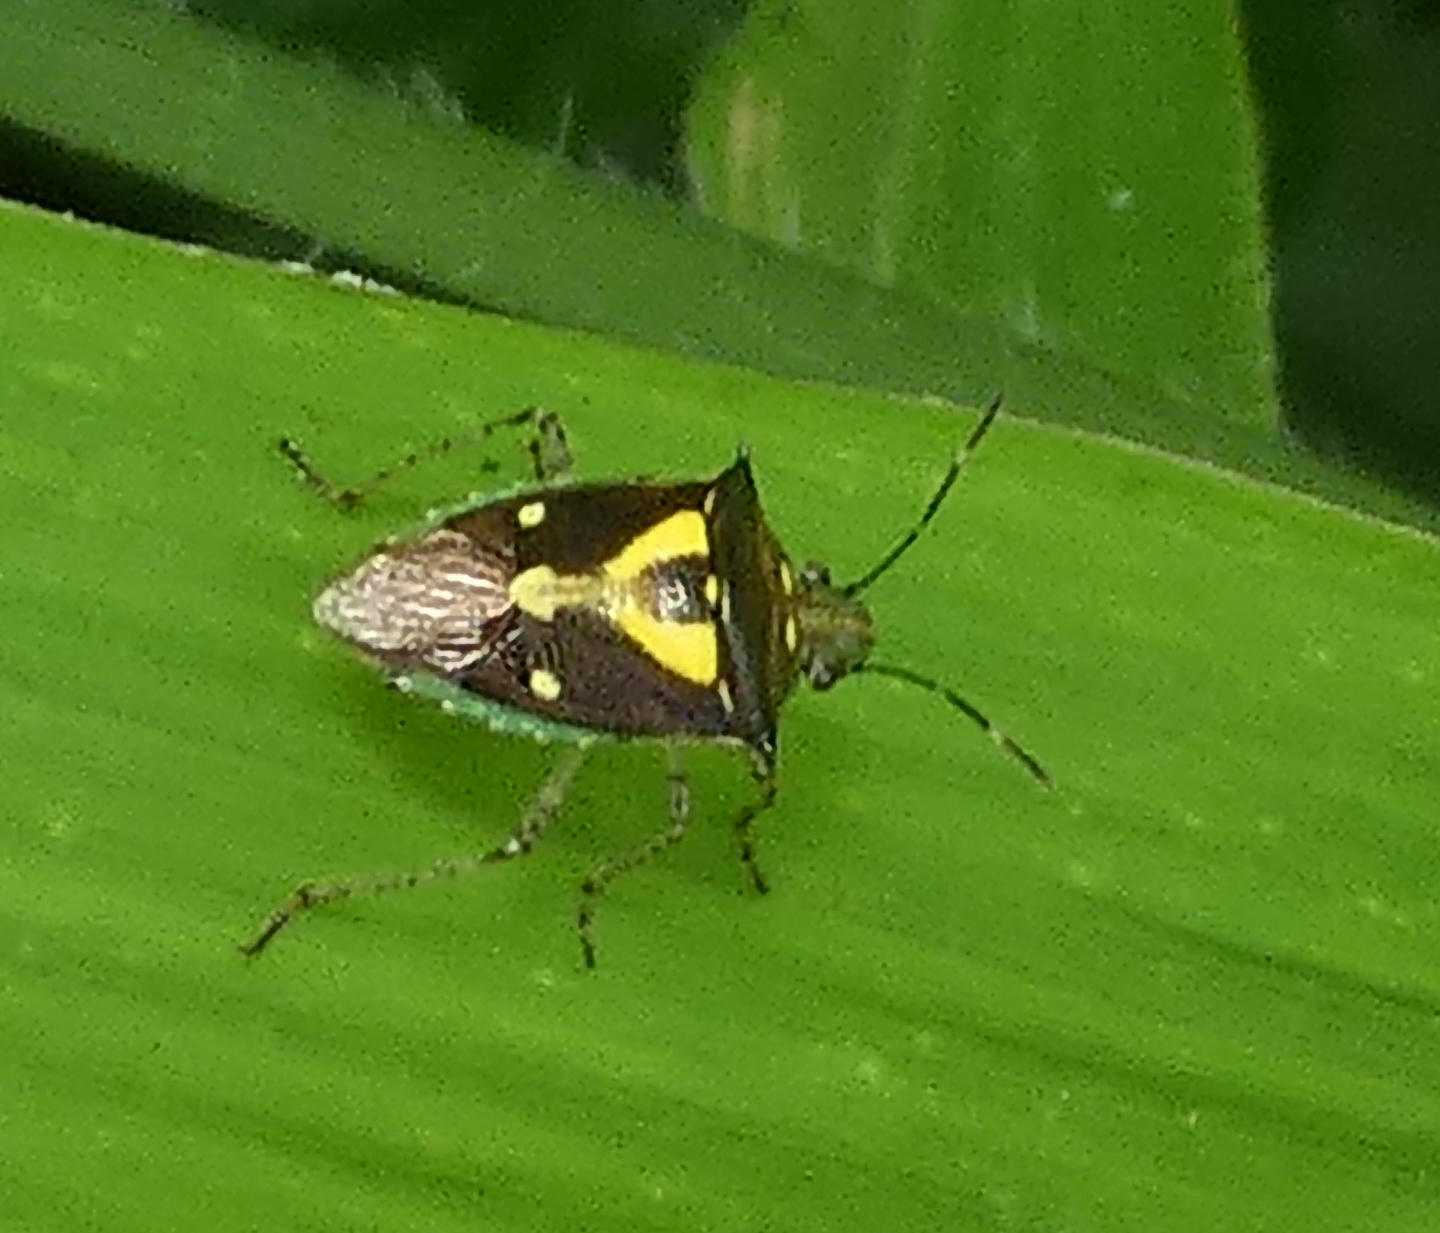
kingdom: Animalia
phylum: Arthropoda
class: Insecta
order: Hemiptera
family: Pentatomidae
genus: Mormidea
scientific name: Mormidea ypsilon
